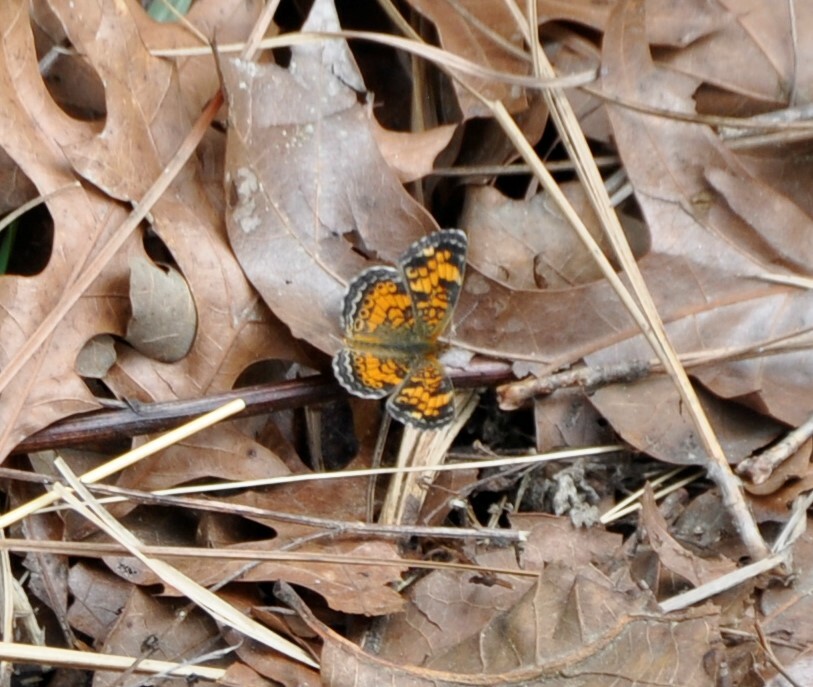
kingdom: Animalia
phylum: Arthropoda
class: Insecta
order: Lepidoptera
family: Nymphalidae
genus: Phyciodes
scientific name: Phyciodes tharos
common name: Pearl crescent
